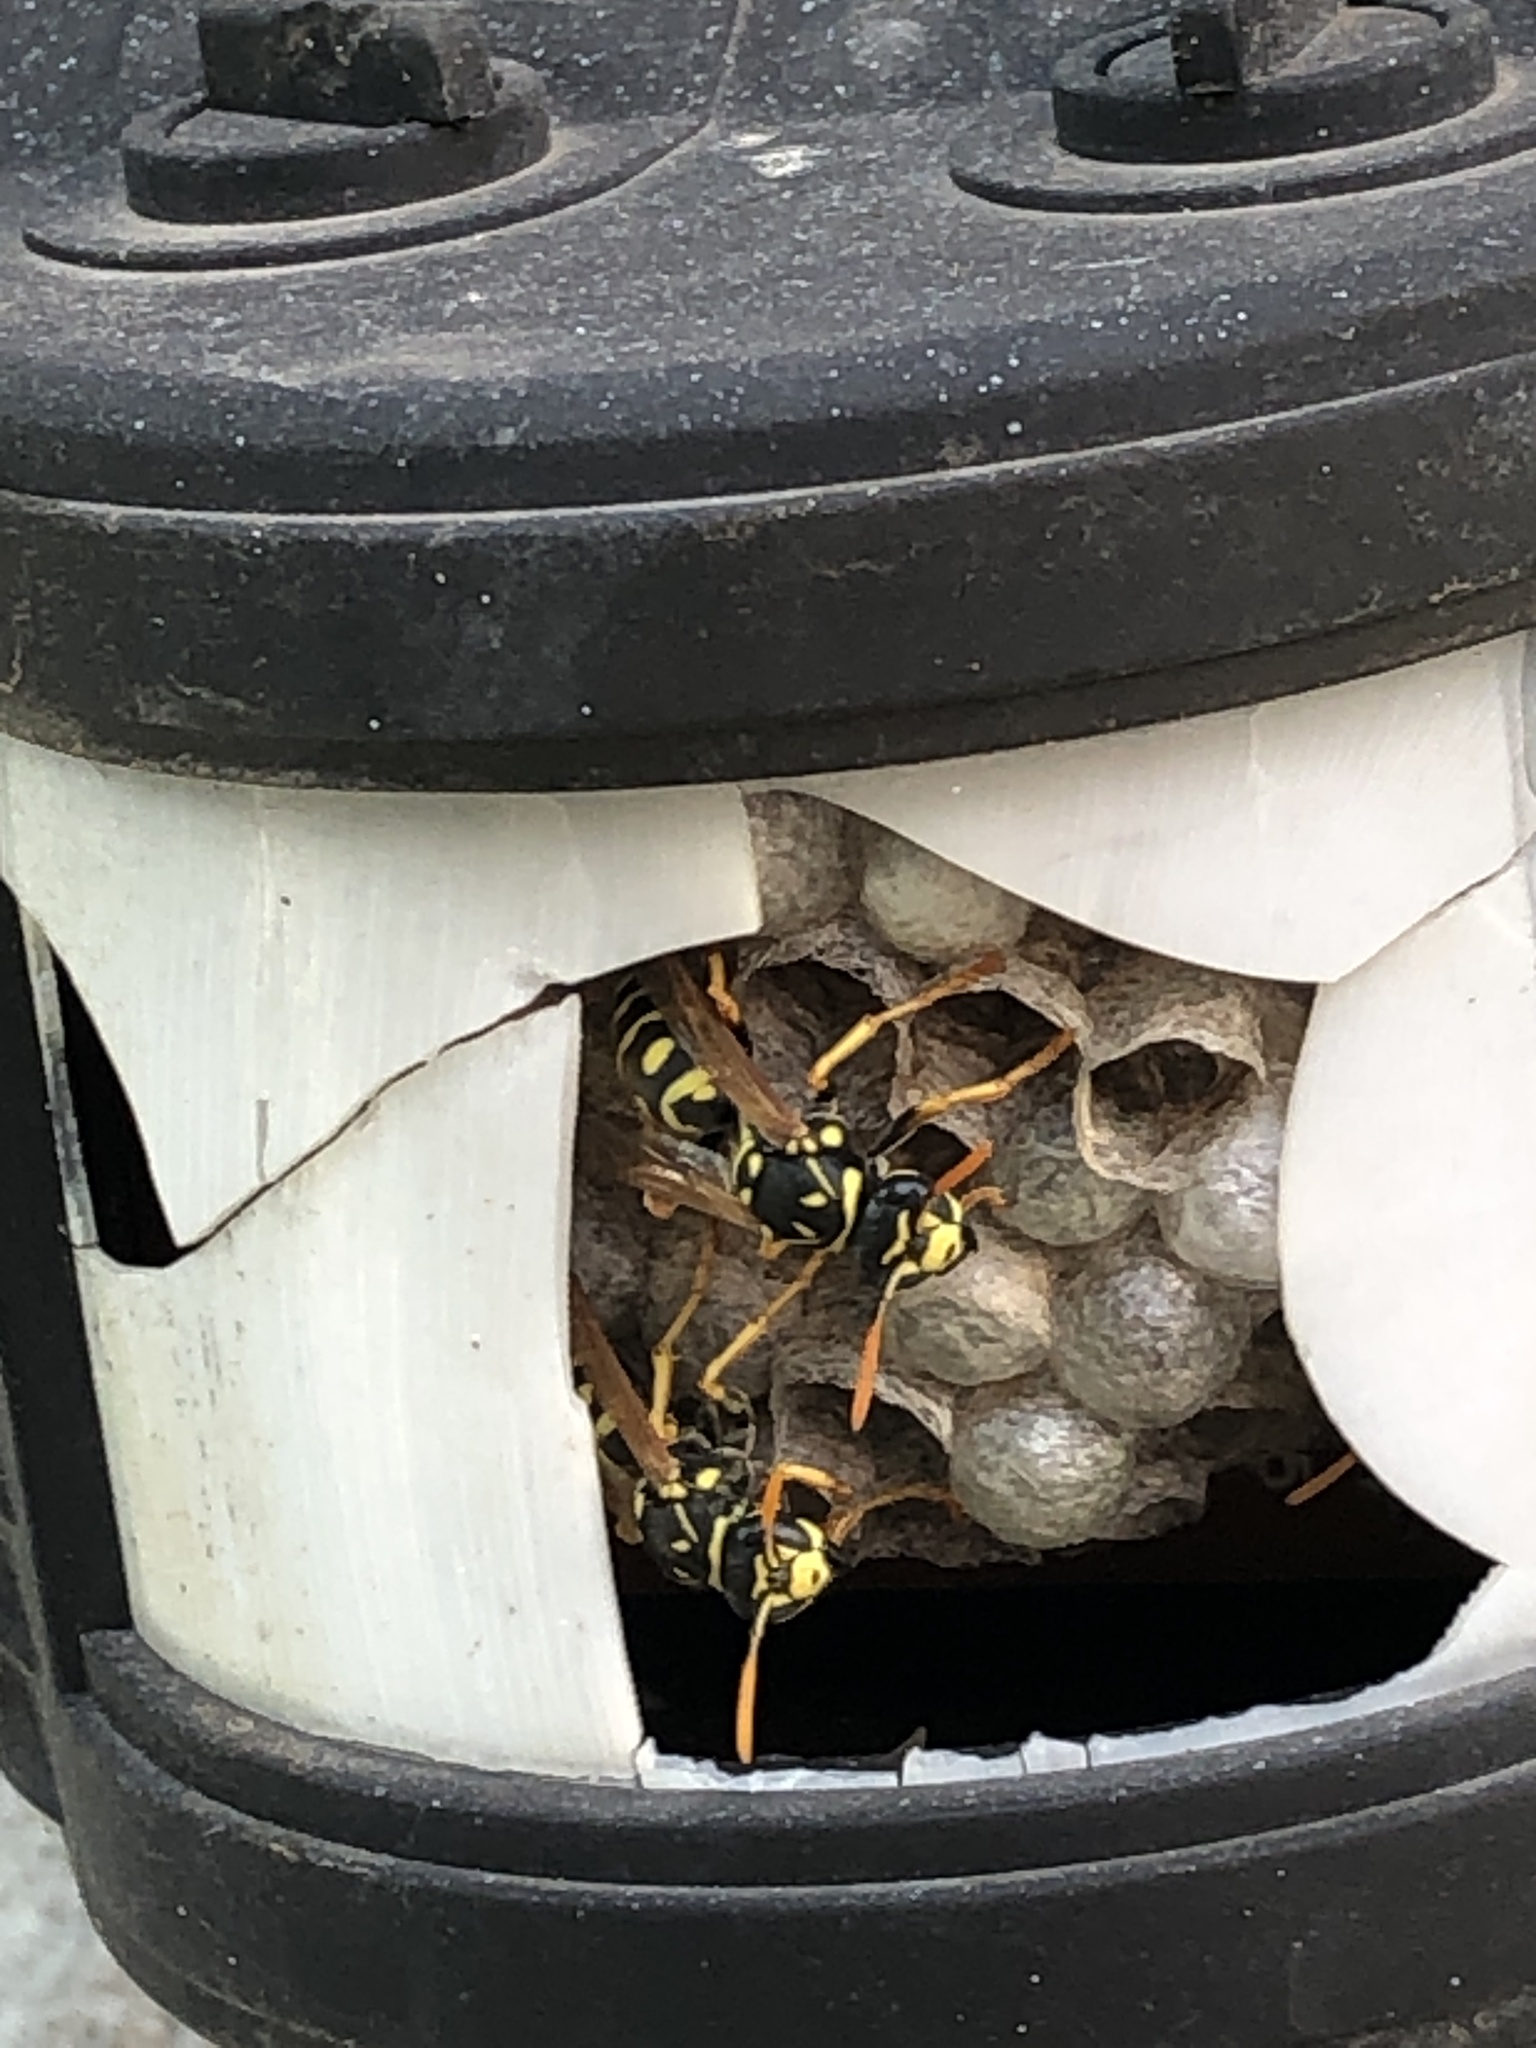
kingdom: Animalia
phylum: Arthropoda
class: Insecta
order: Hymenoptera
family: Eumenidae
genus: Polistes
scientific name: Polistes dominula
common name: Paper wasp
